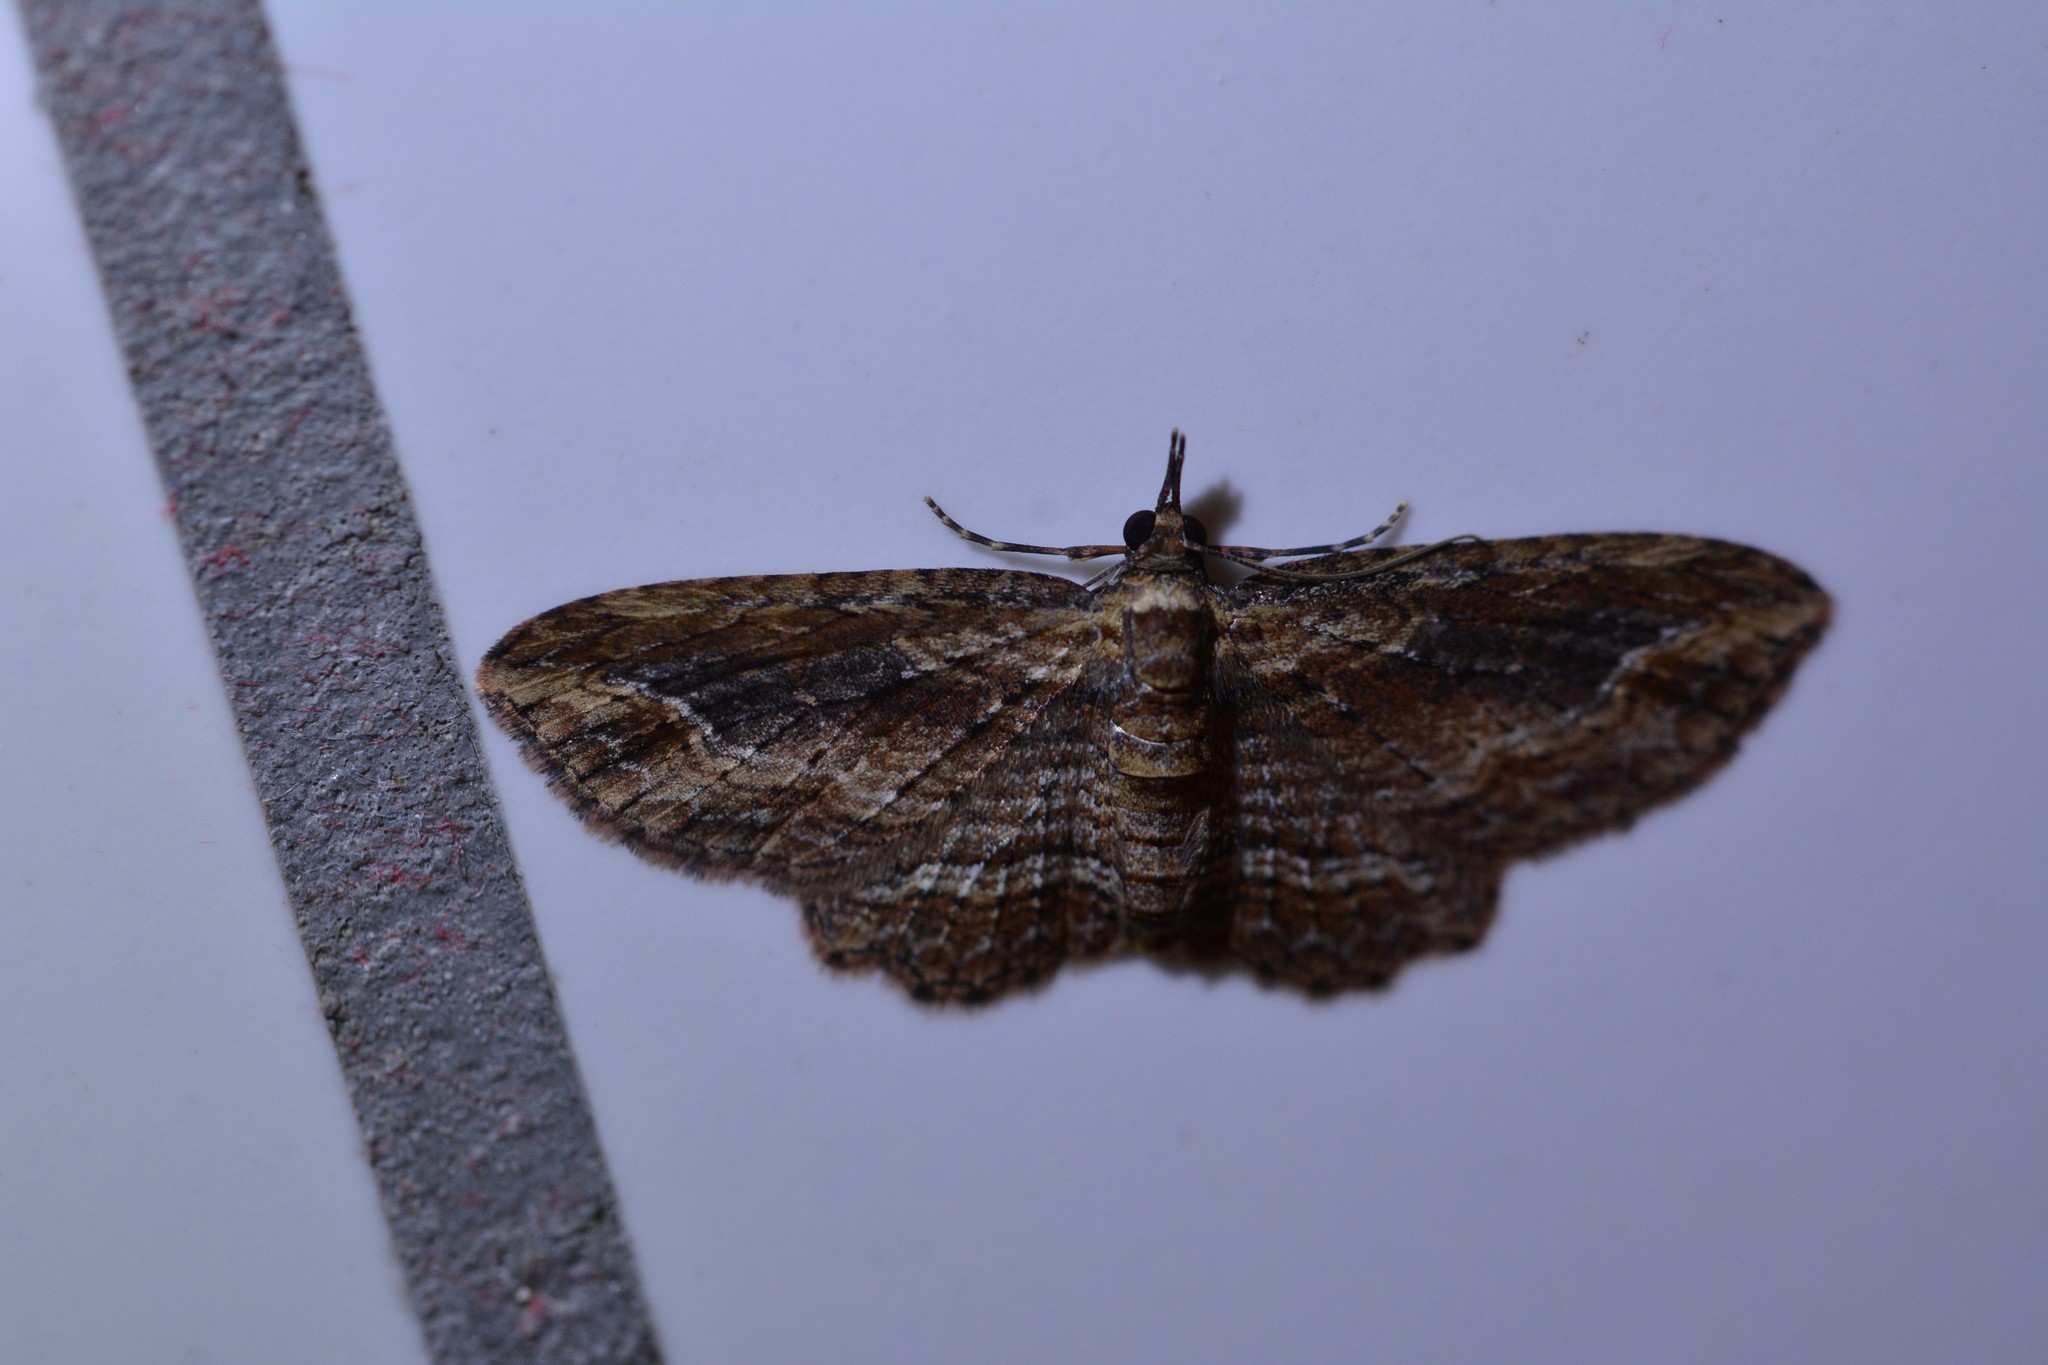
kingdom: Animalia
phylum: Arthropoda
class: Insecta
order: Lepidoptera
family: Geometridae
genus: Chloroclystis
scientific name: Chloroclystis filata
